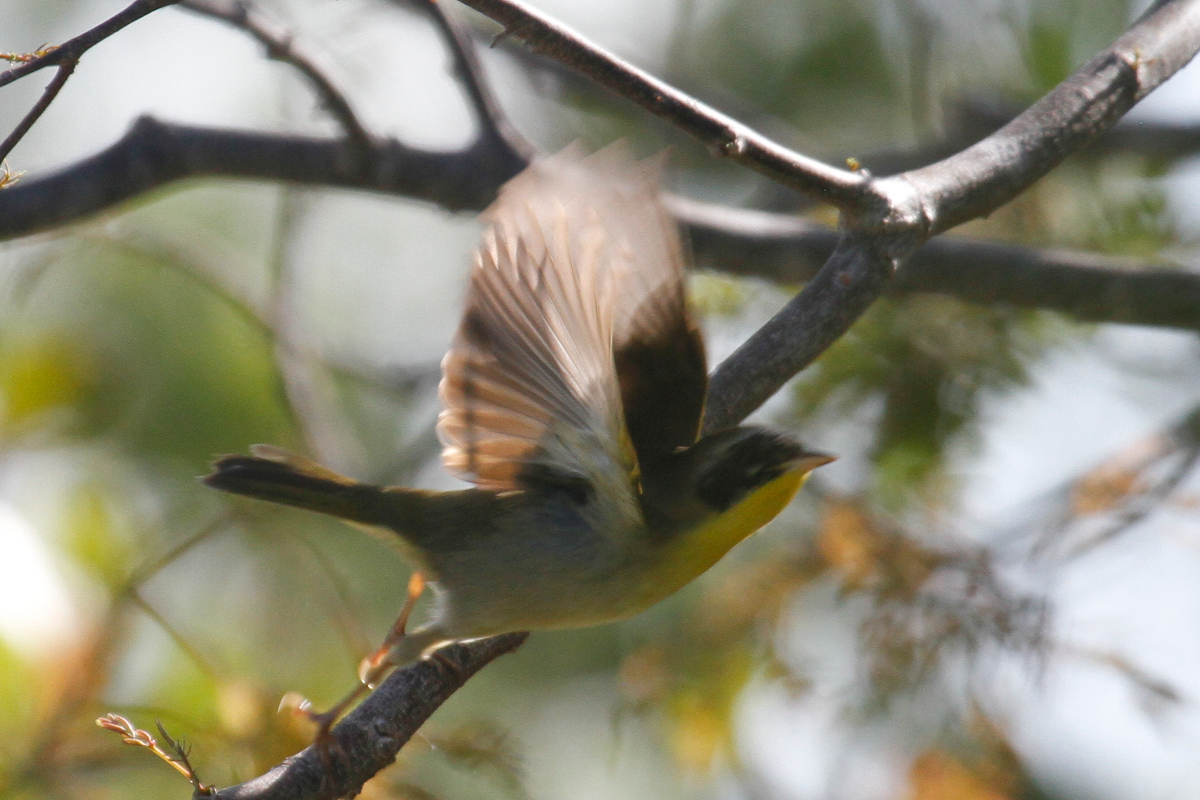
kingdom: Animalia
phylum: Chordata
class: Aves
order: Passeriformes
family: Parulidae
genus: Geothlypis
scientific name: Geothlypis trichas
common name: Common yellowthroat
